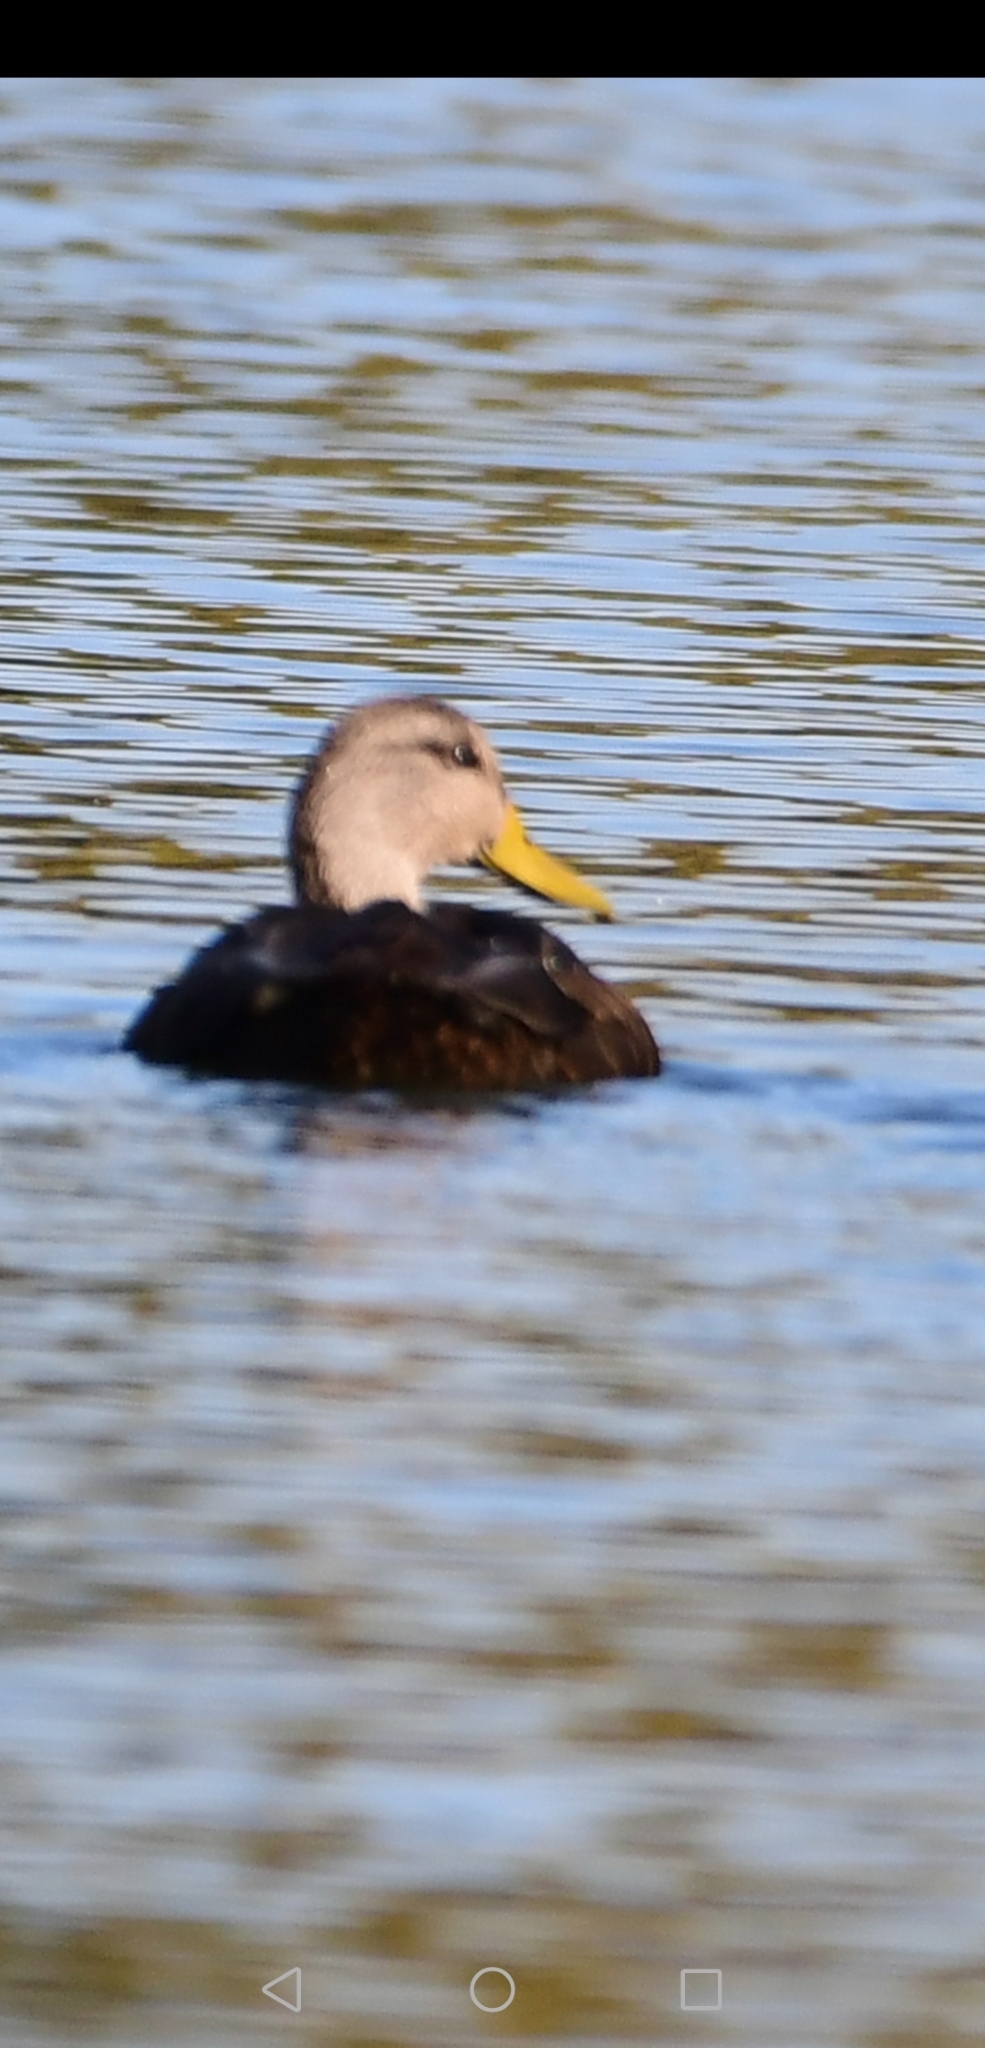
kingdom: Animalia
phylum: Chordata
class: Aves
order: Anseriformes
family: Anatidae
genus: Anas
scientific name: Anas rubripes
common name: American black duck
